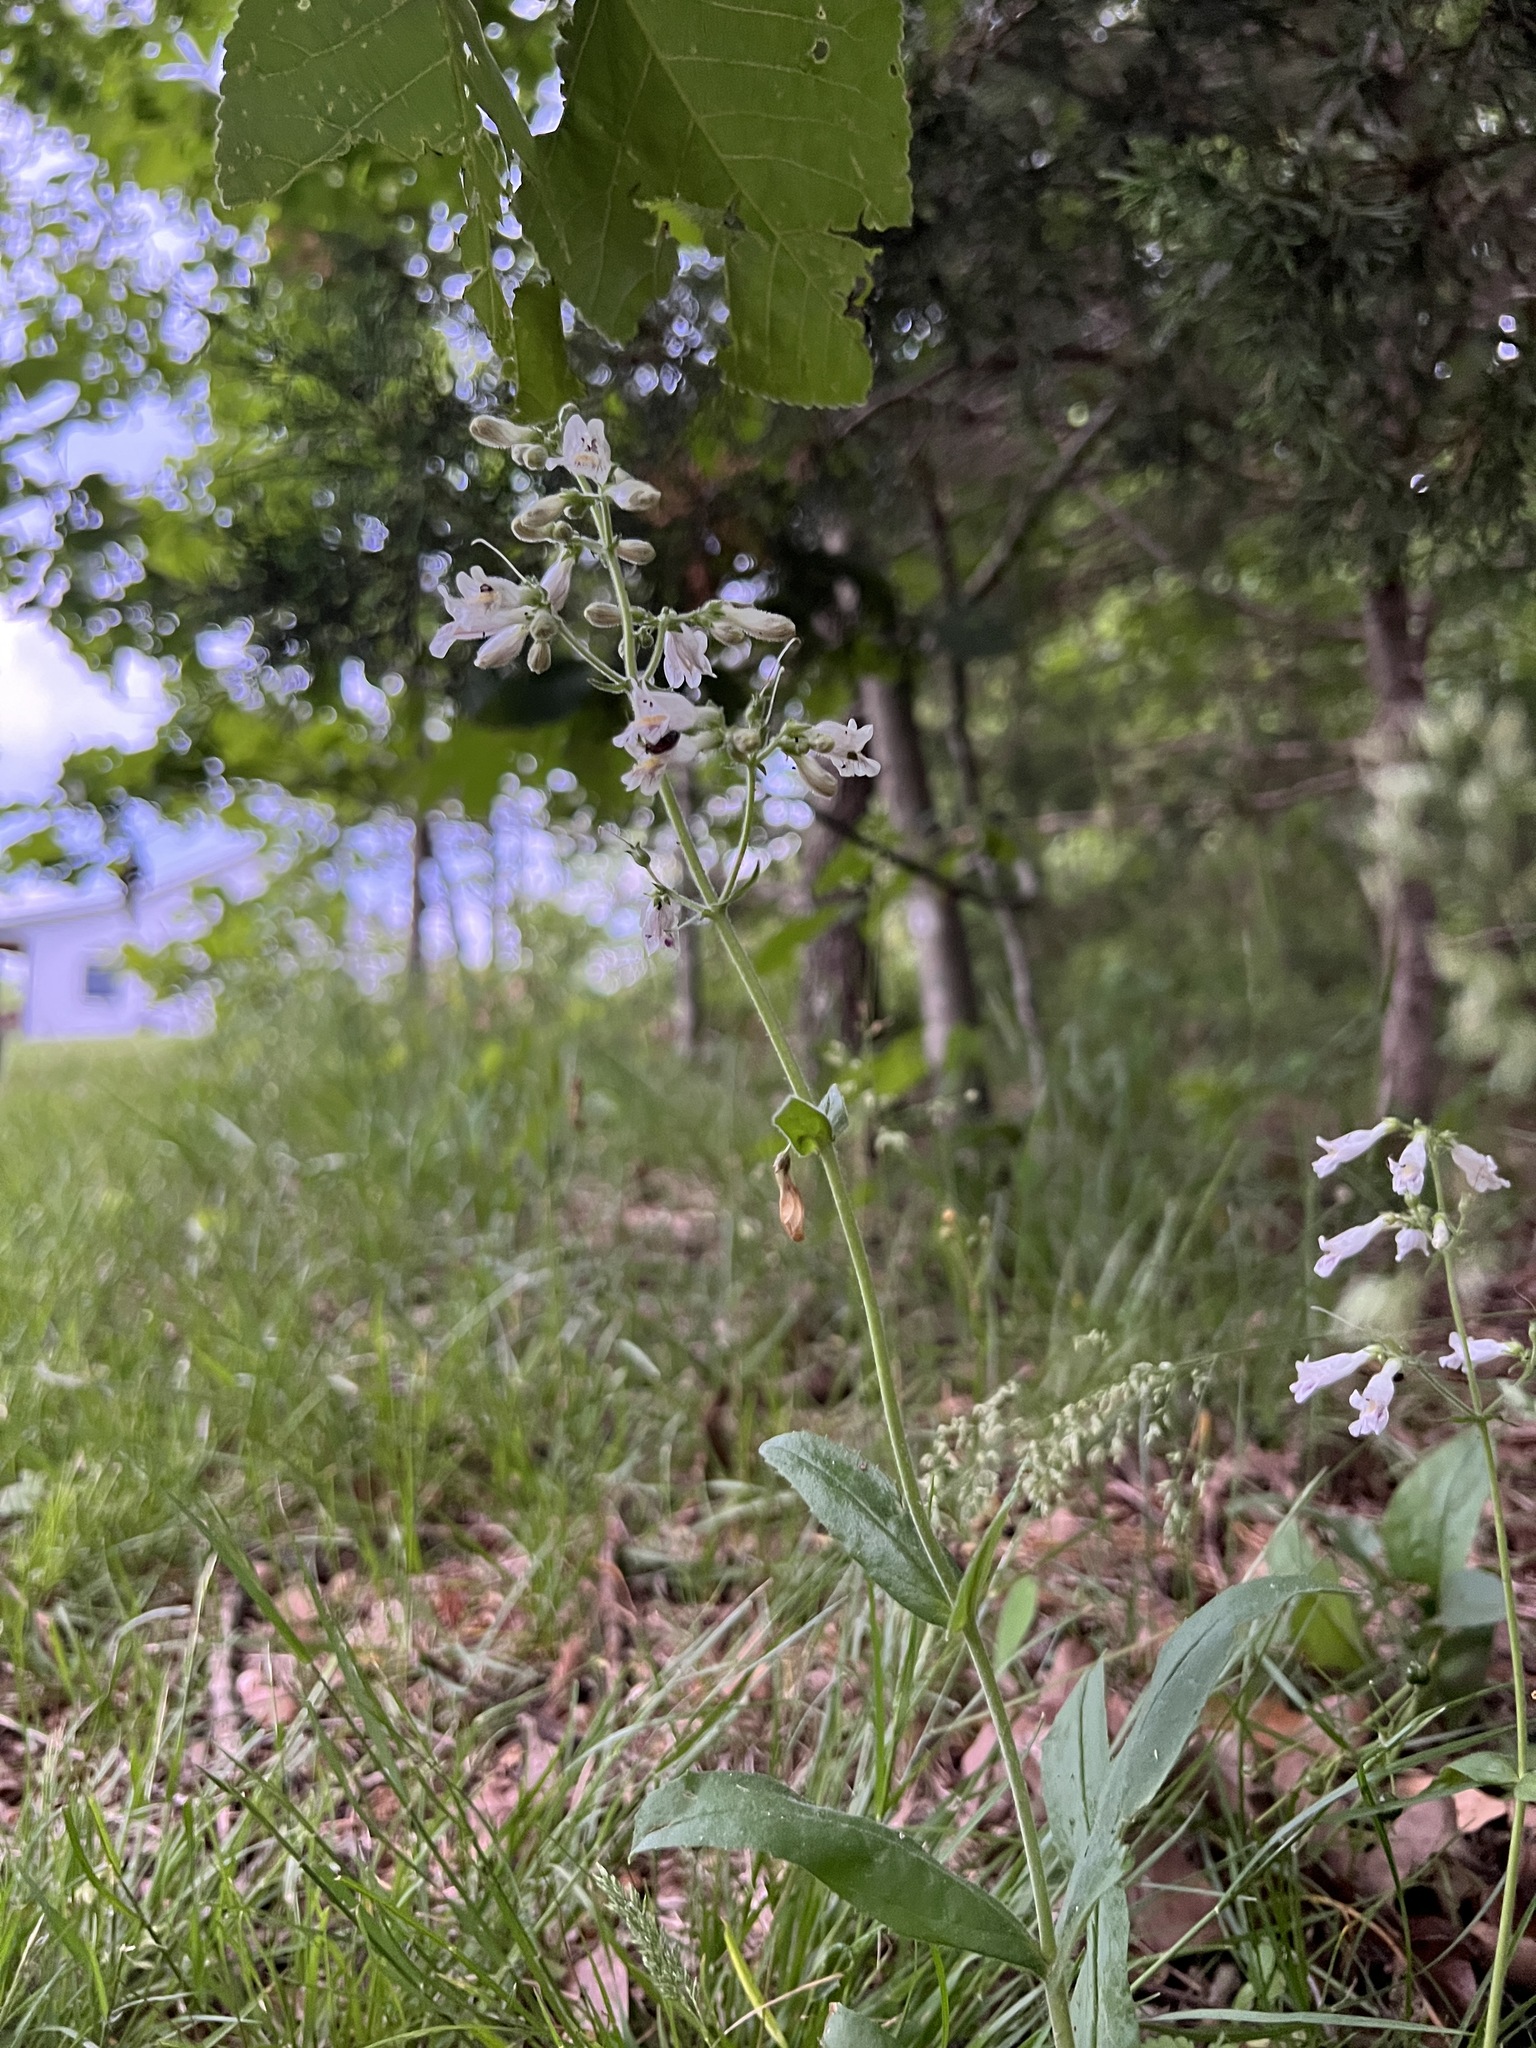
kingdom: Plantae
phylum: Tracheophyta
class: Magnoliopsida
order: Lamiales
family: Plantaginaceae
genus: Penstemon
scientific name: Penstemon pallidus
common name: Pale beardtongue
